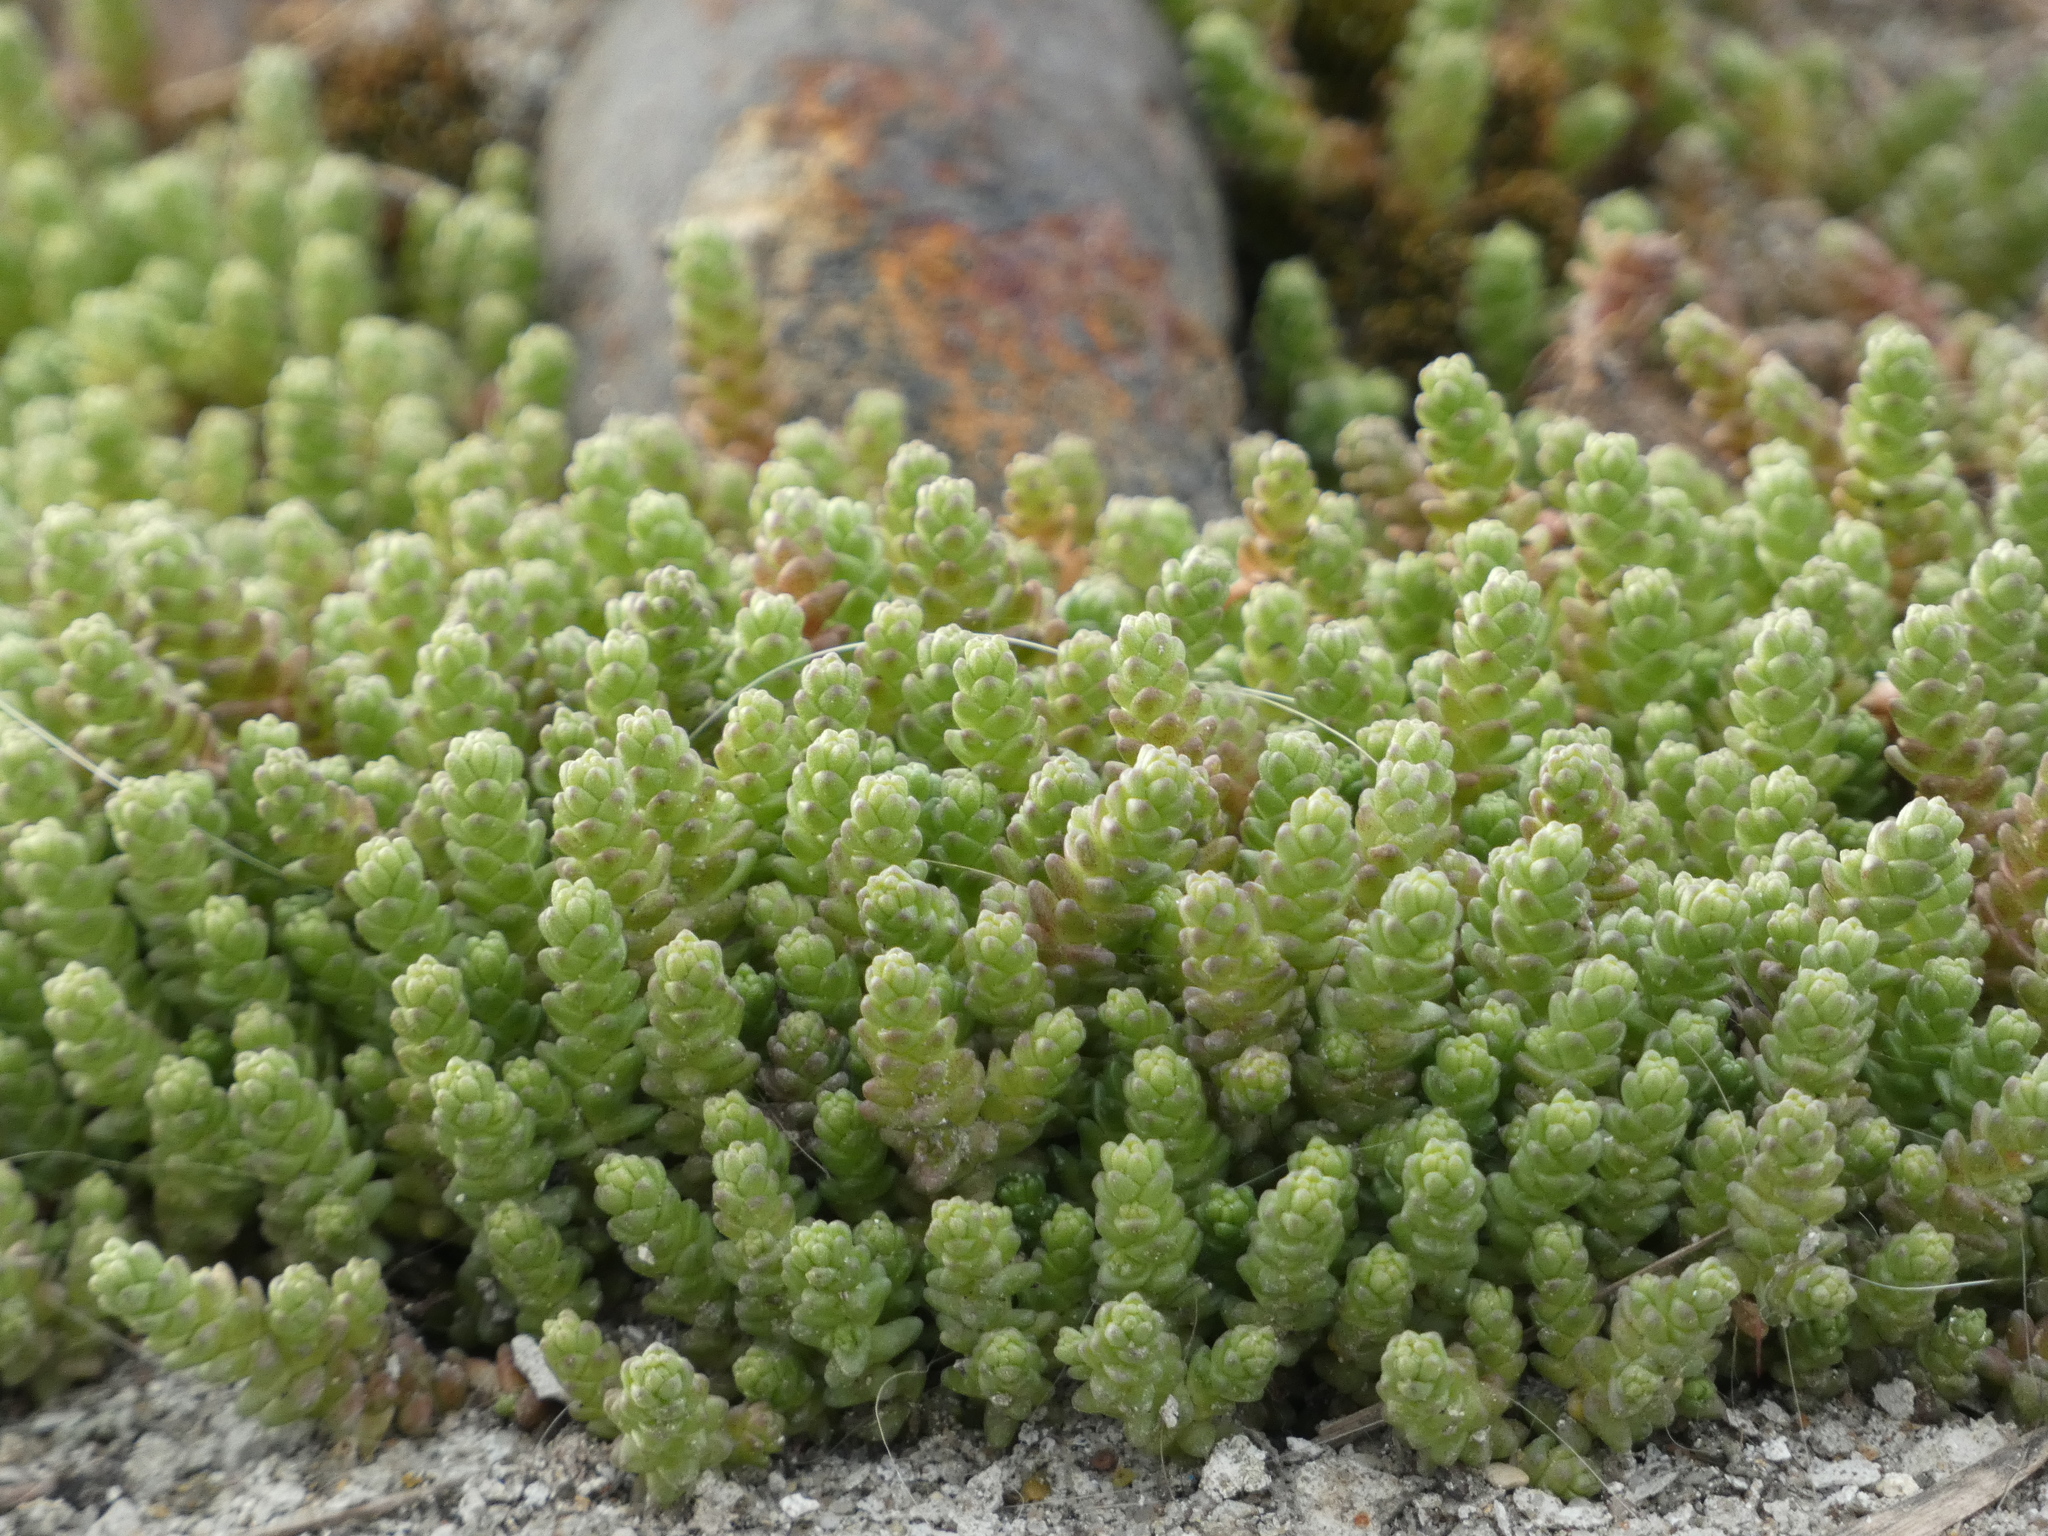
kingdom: Plantae
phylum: Tracheophyta
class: Magnoliopsida
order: Saxifragales
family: Crassulaceae
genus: Sedum
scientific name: Sedum acre
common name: Biting stonecrop
